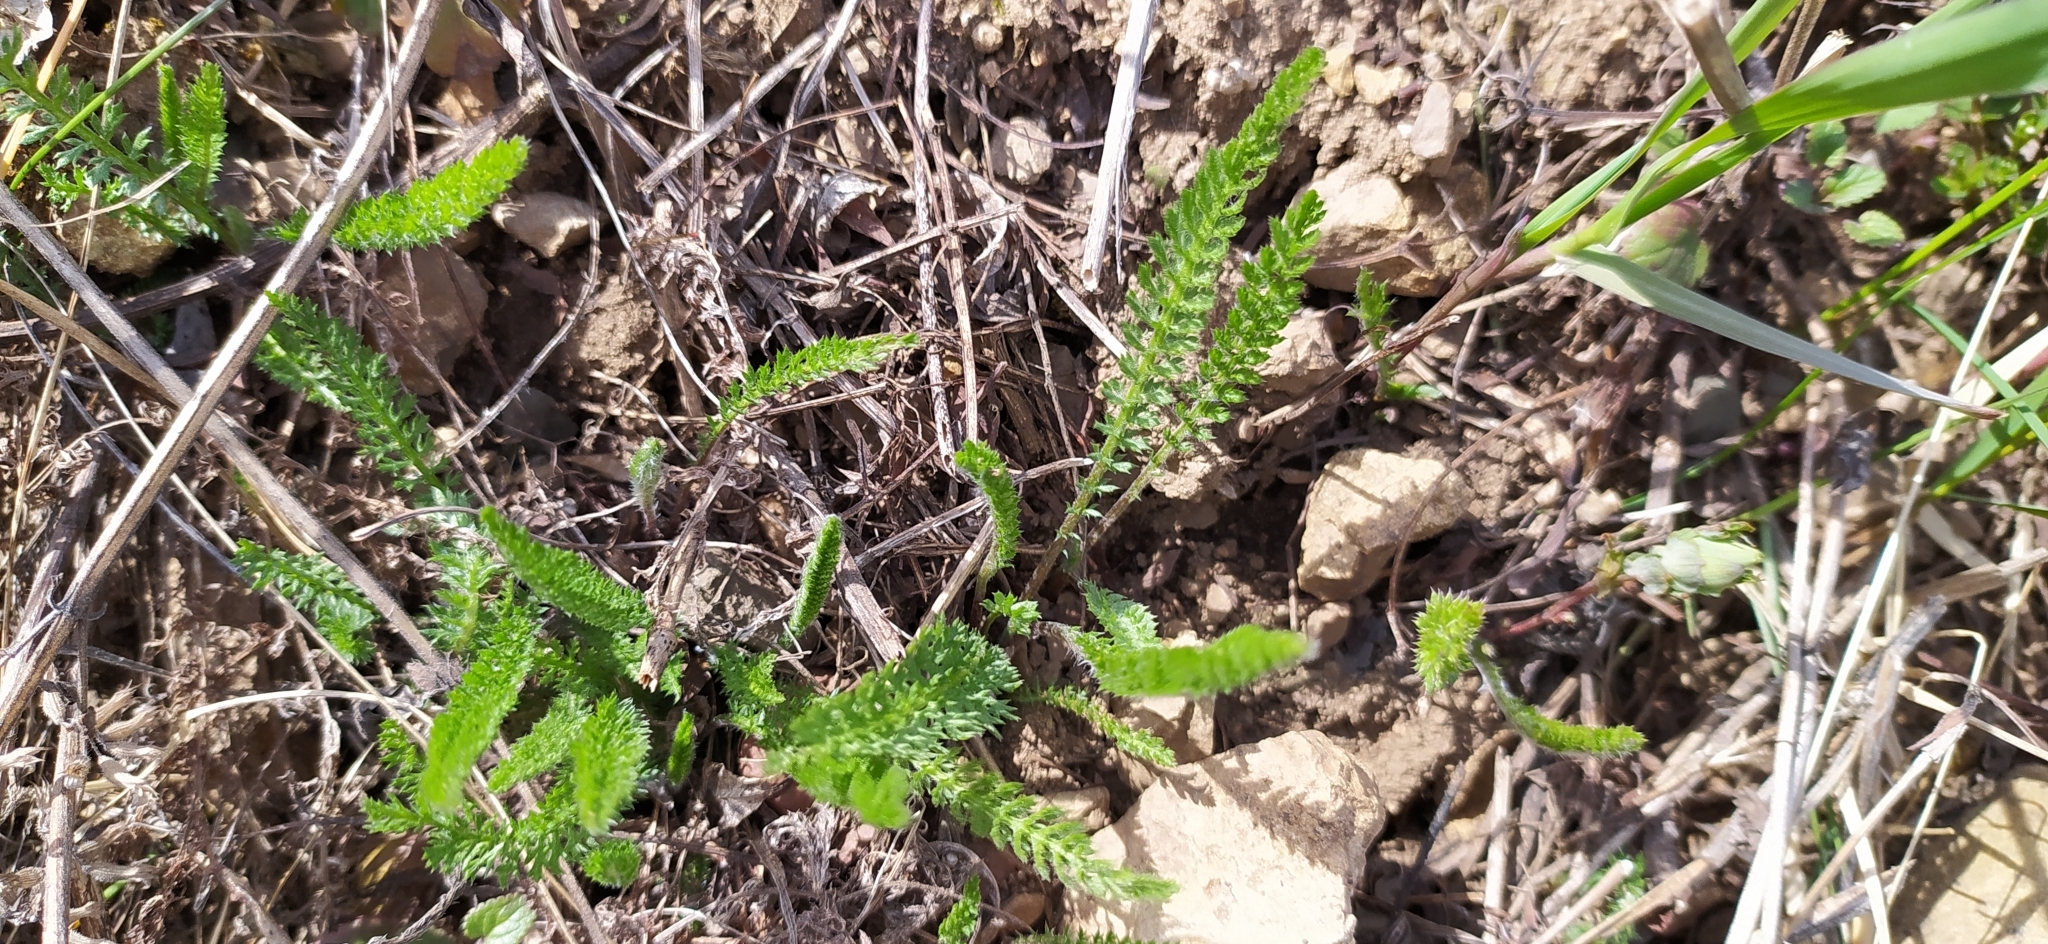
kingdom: Plantae
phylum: Tracheophyta
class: Magnoliopsida
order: Asterales
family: Asteraceae
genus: Achillea
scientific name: Achillea millefolium
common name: Yarrow
